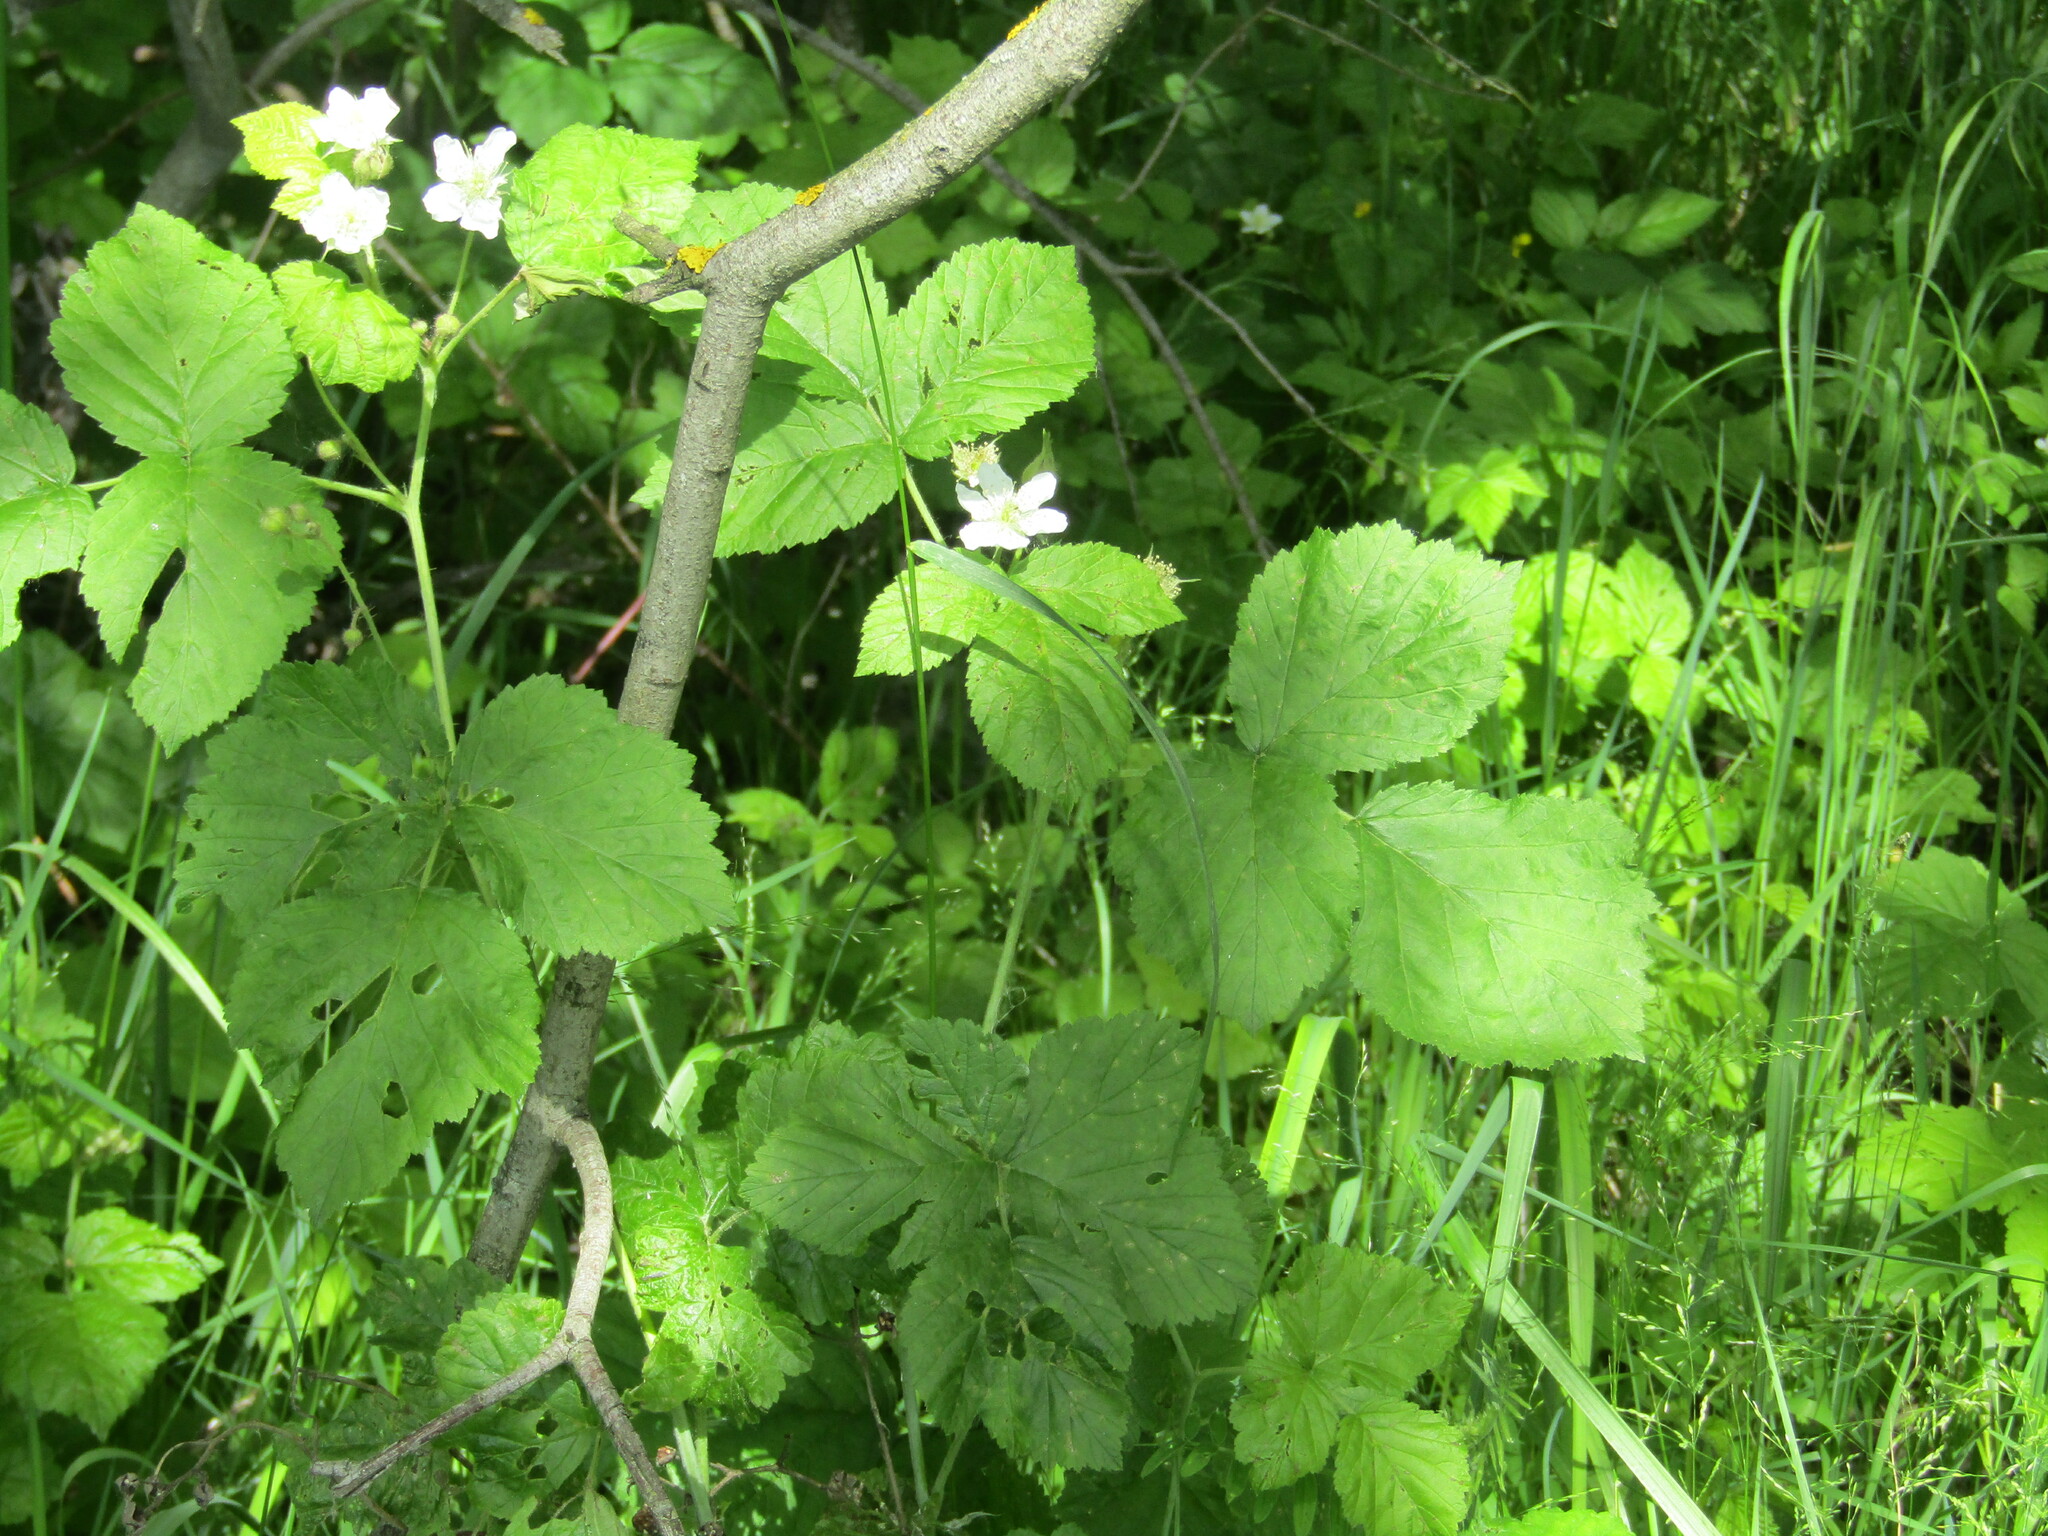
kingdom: Plantae
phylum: Tracheophyta
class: Magnoliopsida
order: Rosales
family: Rosaceae
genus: Rubus
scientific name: Rubus caesius
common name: Dewberry
